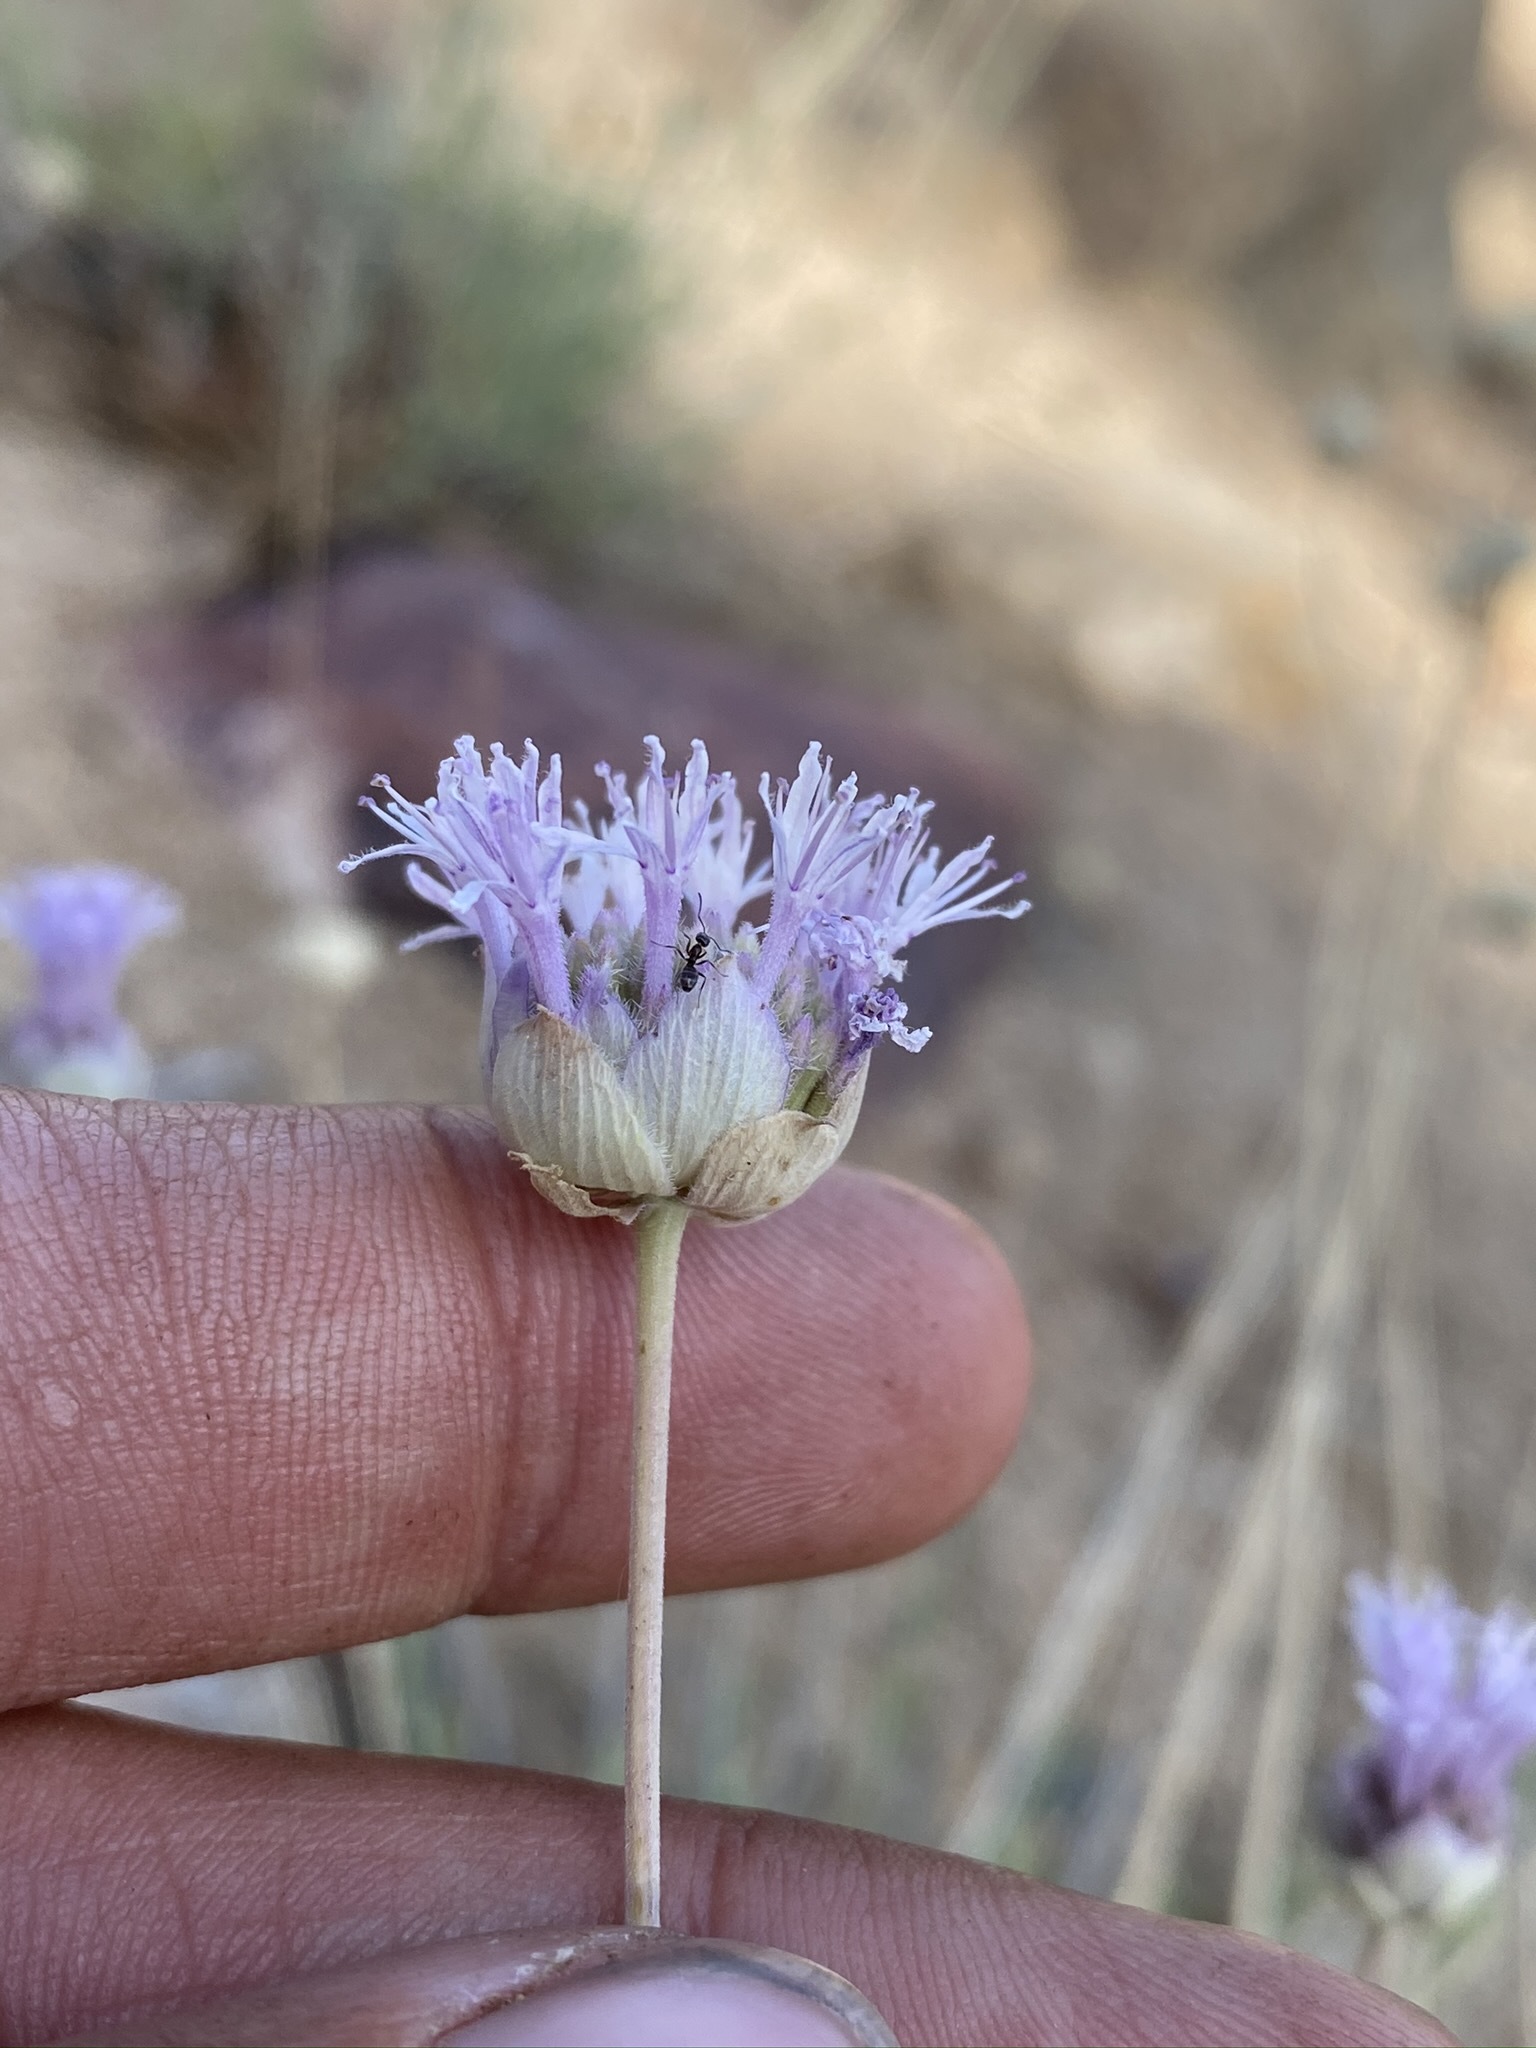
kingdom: Plantae
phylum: Tracheophyta
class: Magnoliopsida
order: Lamiales
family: Lamiaceae
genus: Monardella
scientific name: Monardella linoides
